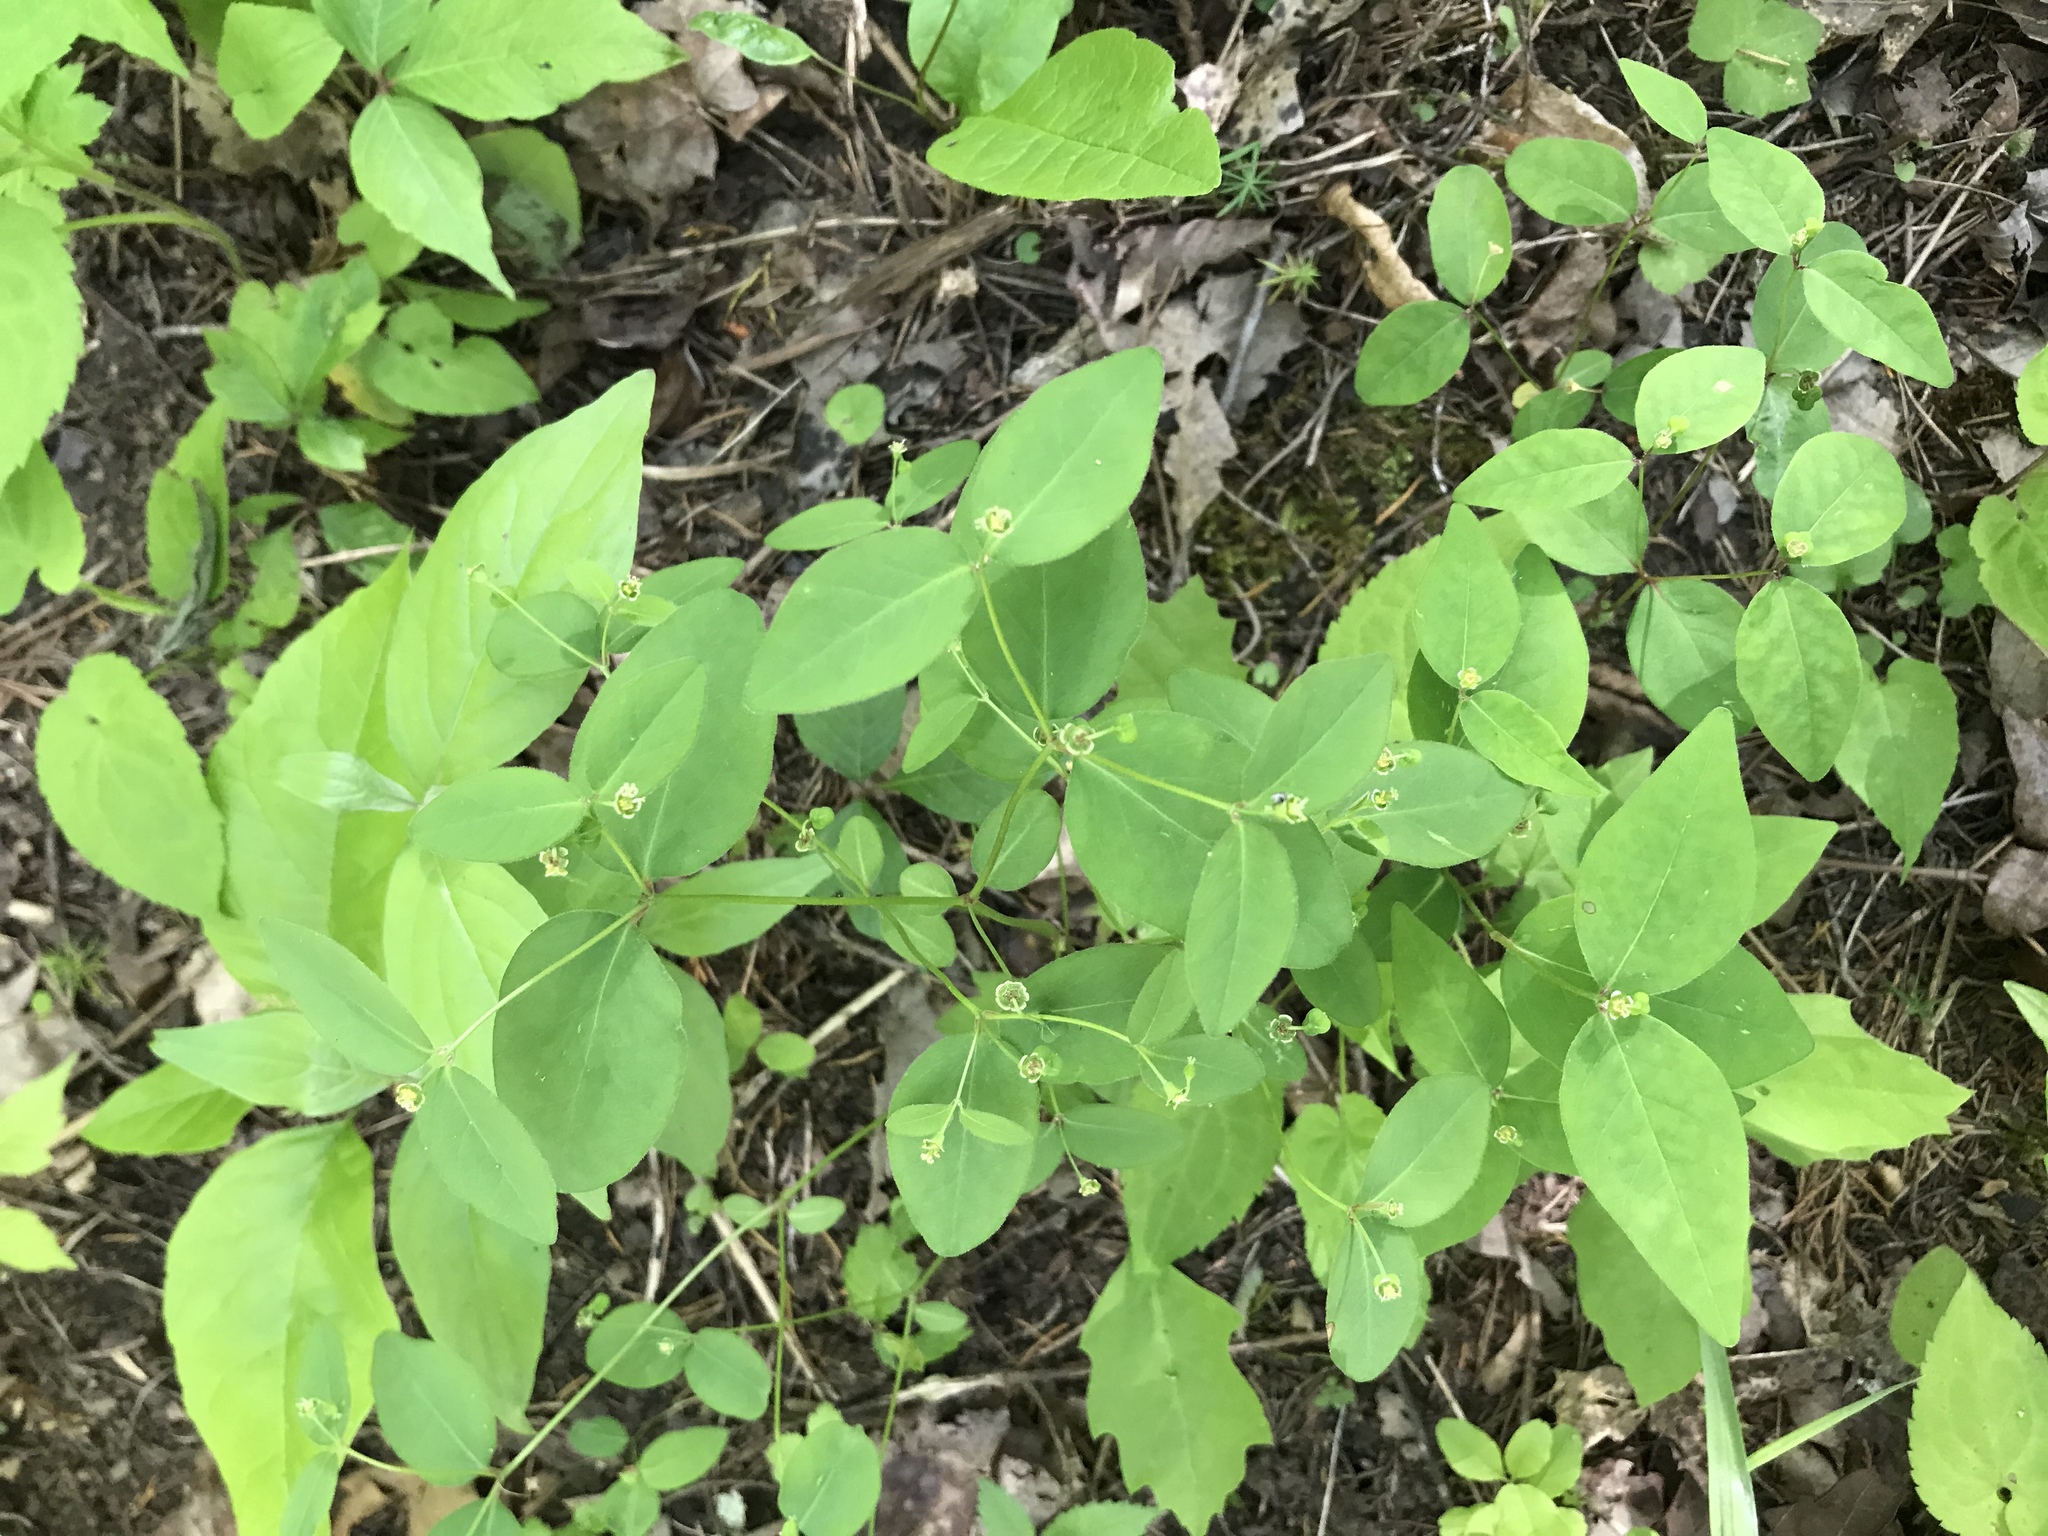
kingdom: Plantae
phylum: Tracheophyta
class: Magnoliopsida
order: Malpighiales
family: Euphorbiaceae
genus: Euphorbia
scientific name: Euphorbia mercurialina
